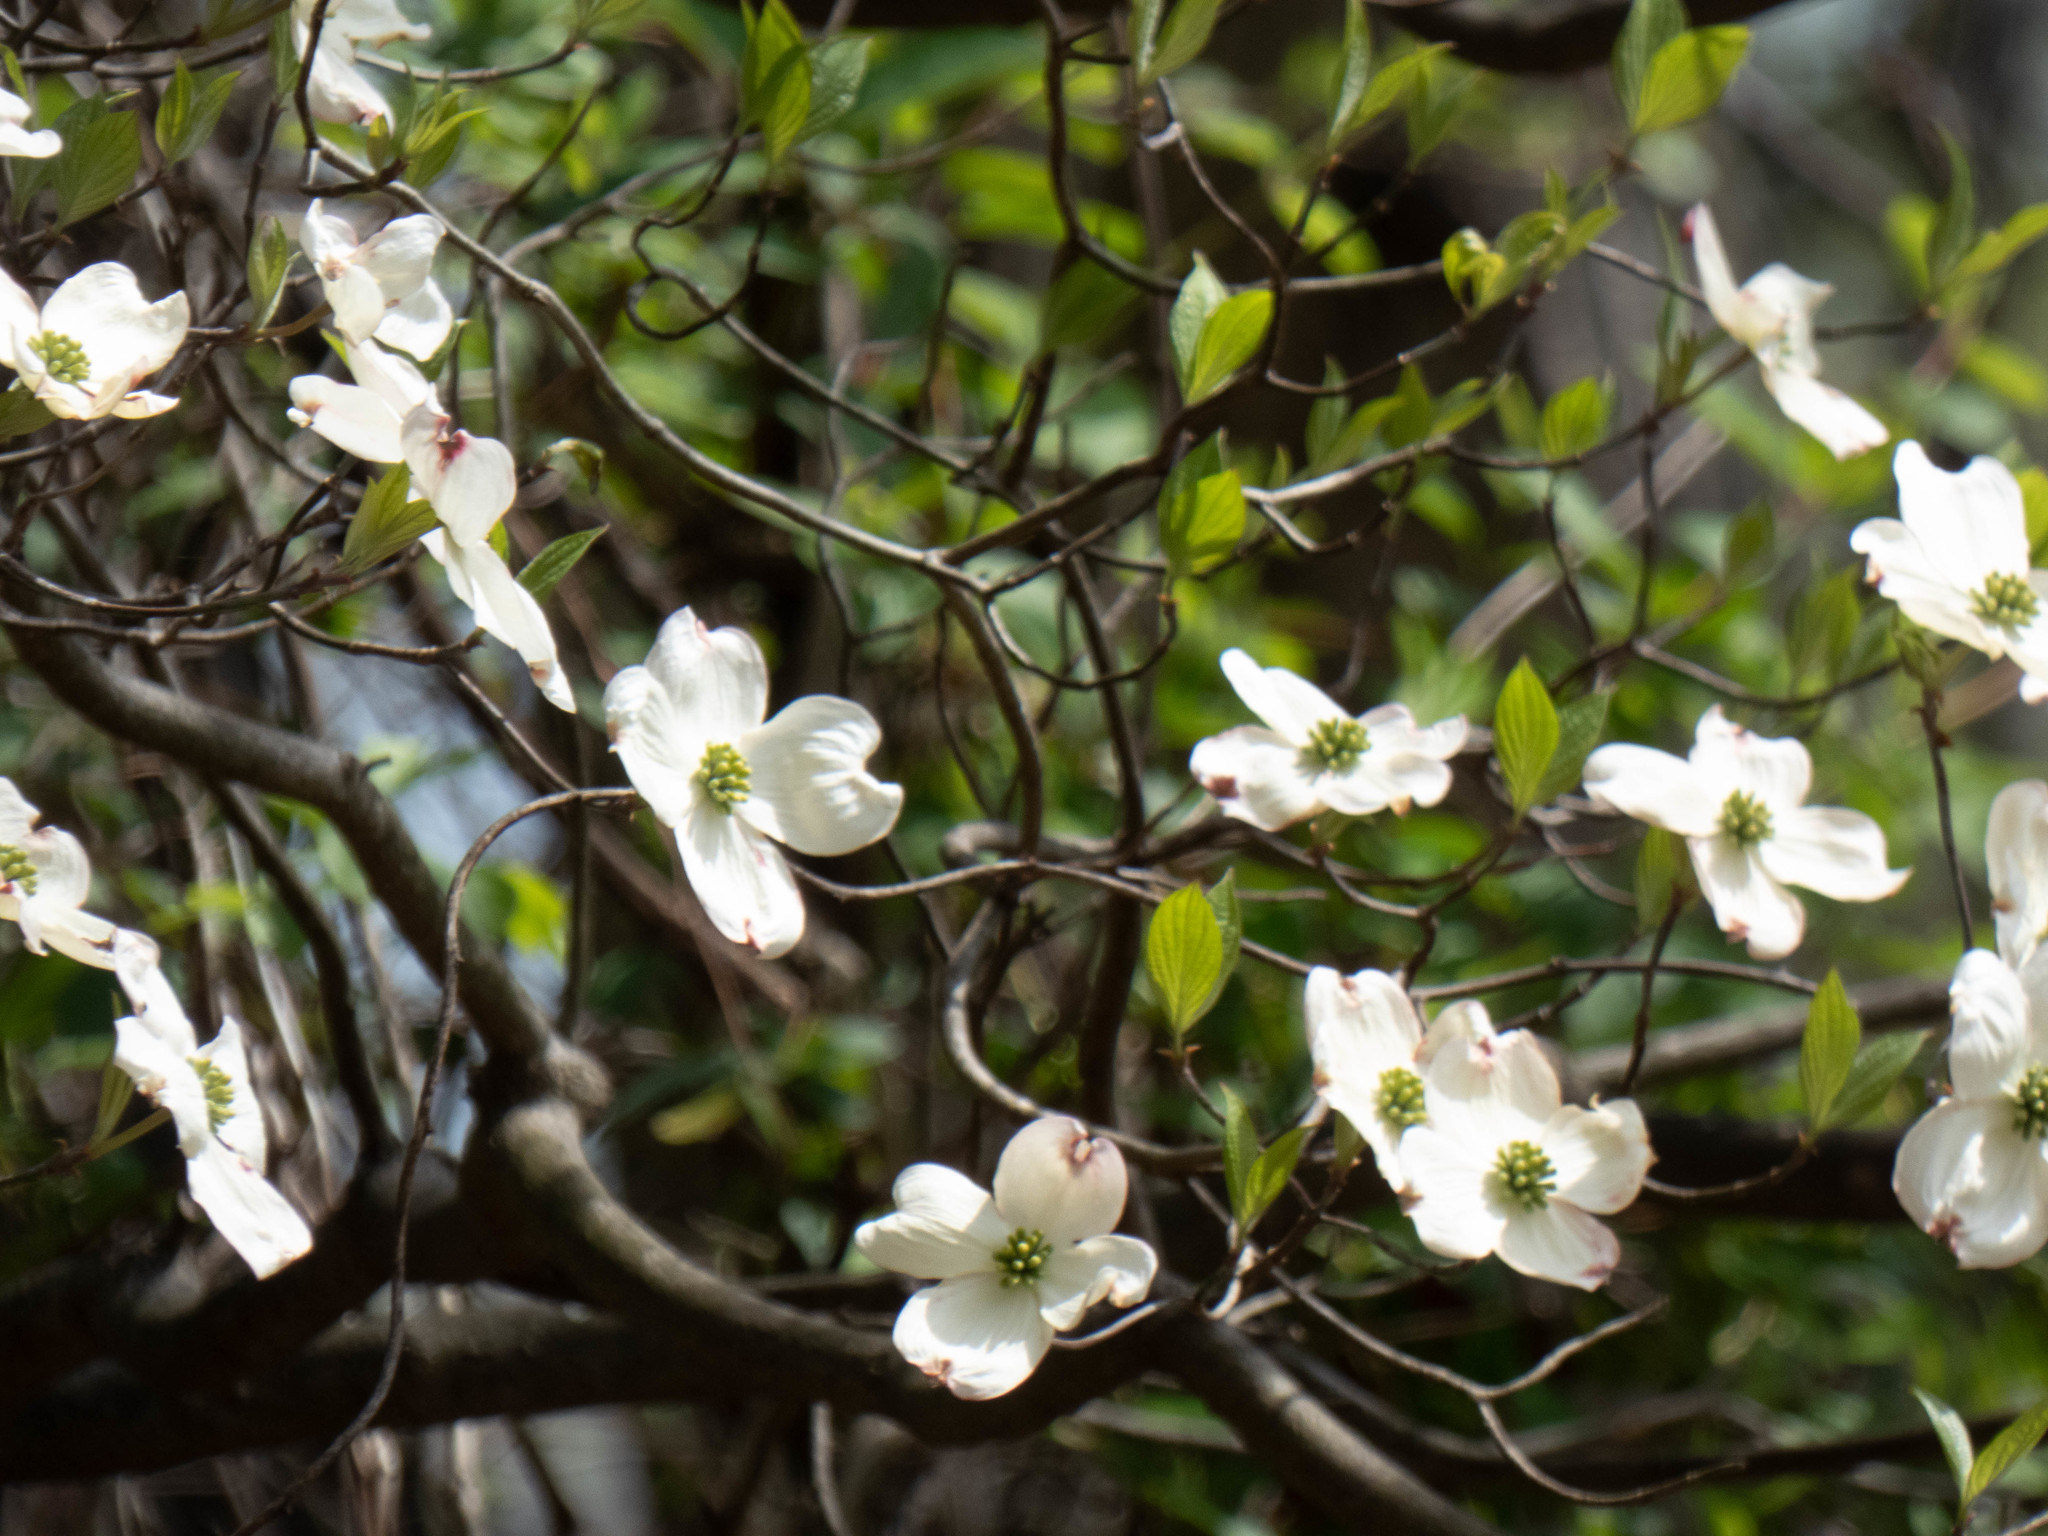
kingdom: Plantae
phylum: Tracheophyta
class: Magnoliopsida
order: Cornales
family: Cornaceae
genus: Cornus
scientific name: Cornus florida
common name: Flowering dogwood
